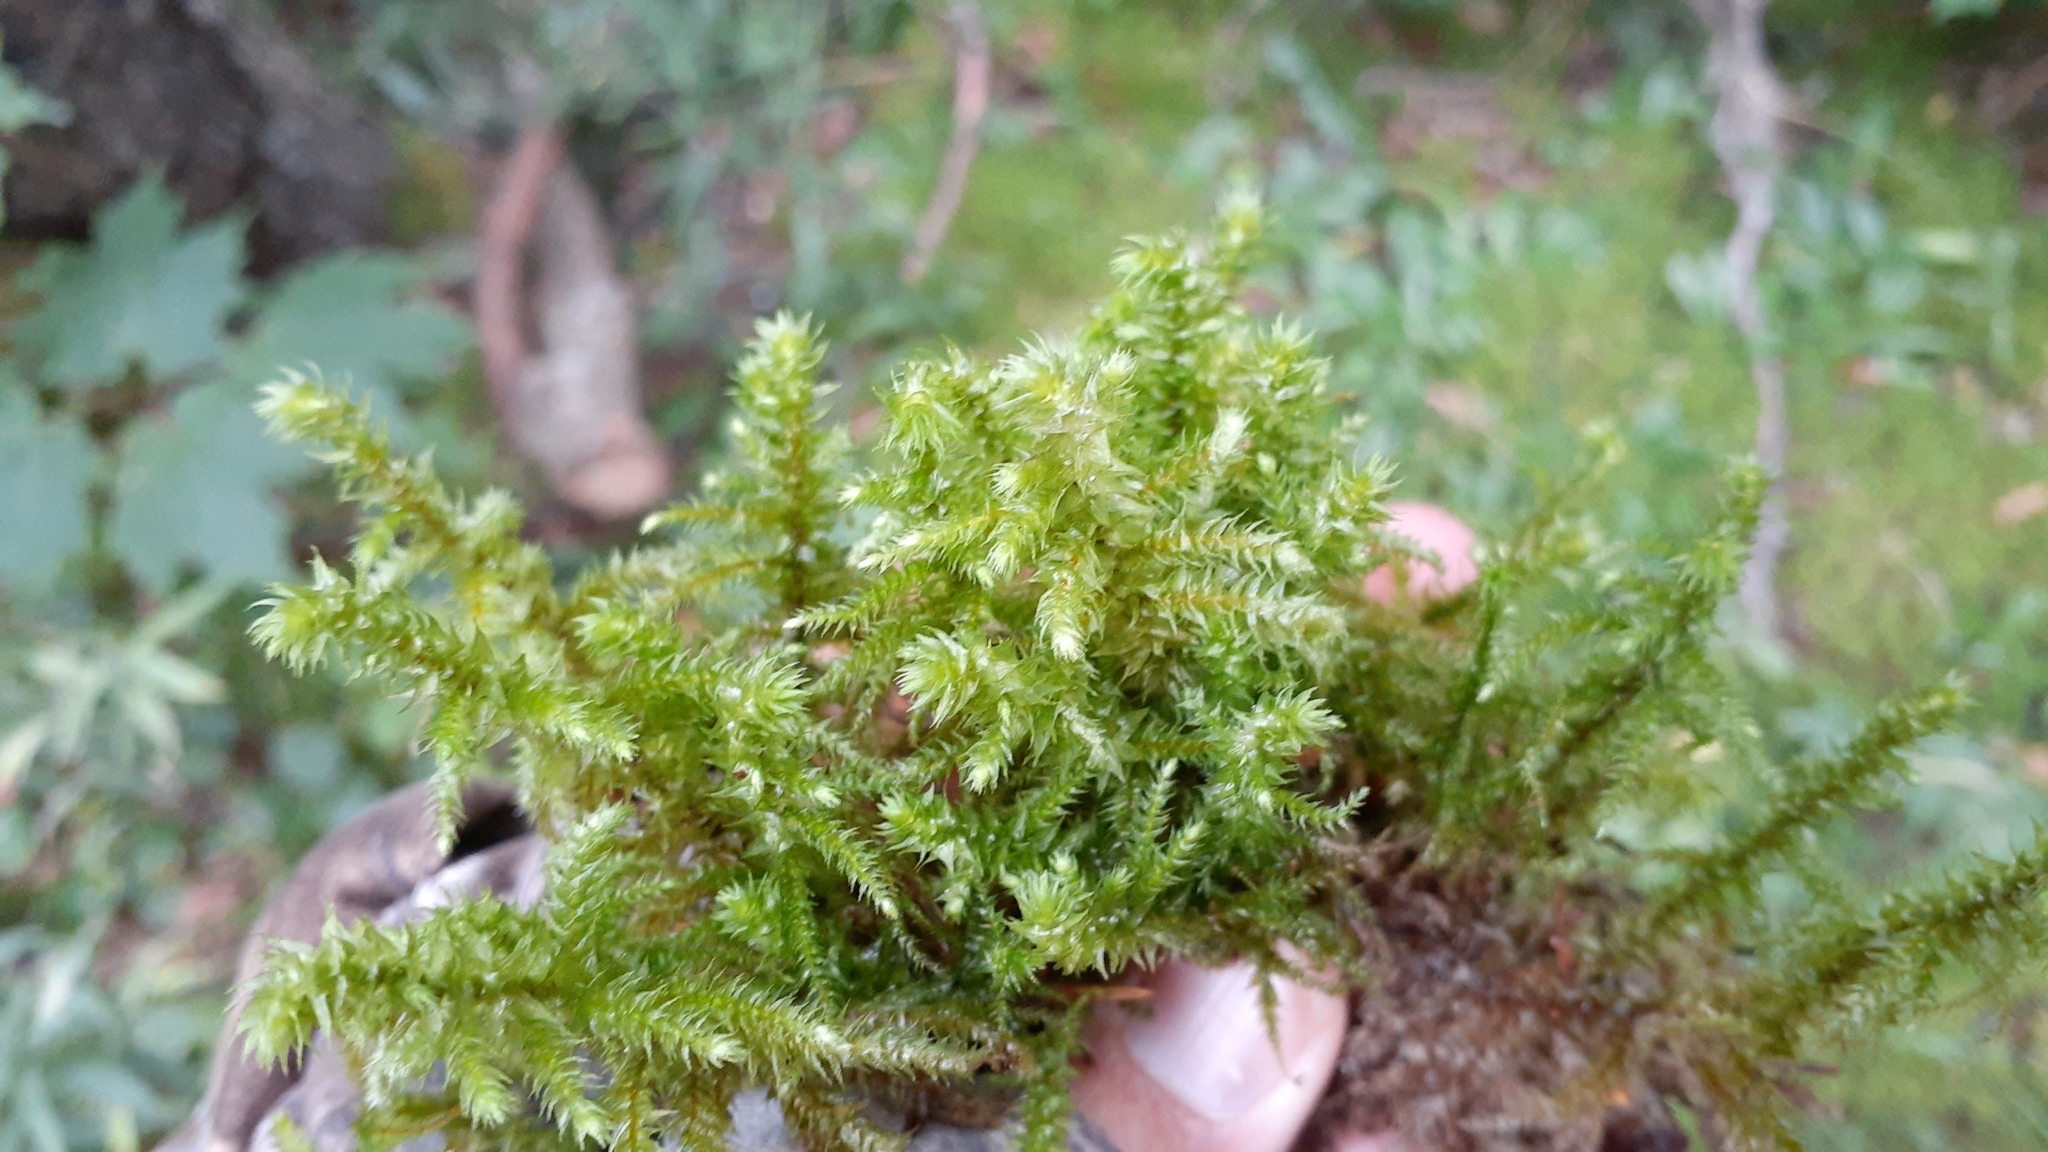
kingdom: Plantae
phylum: Bryophyta
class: Bryopsida
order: Hypnales
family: Hylocomiaceae
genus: Hylocomiadelphus
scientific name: Hylocomiadelphus triquetrus
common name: Rough goose neck moss
